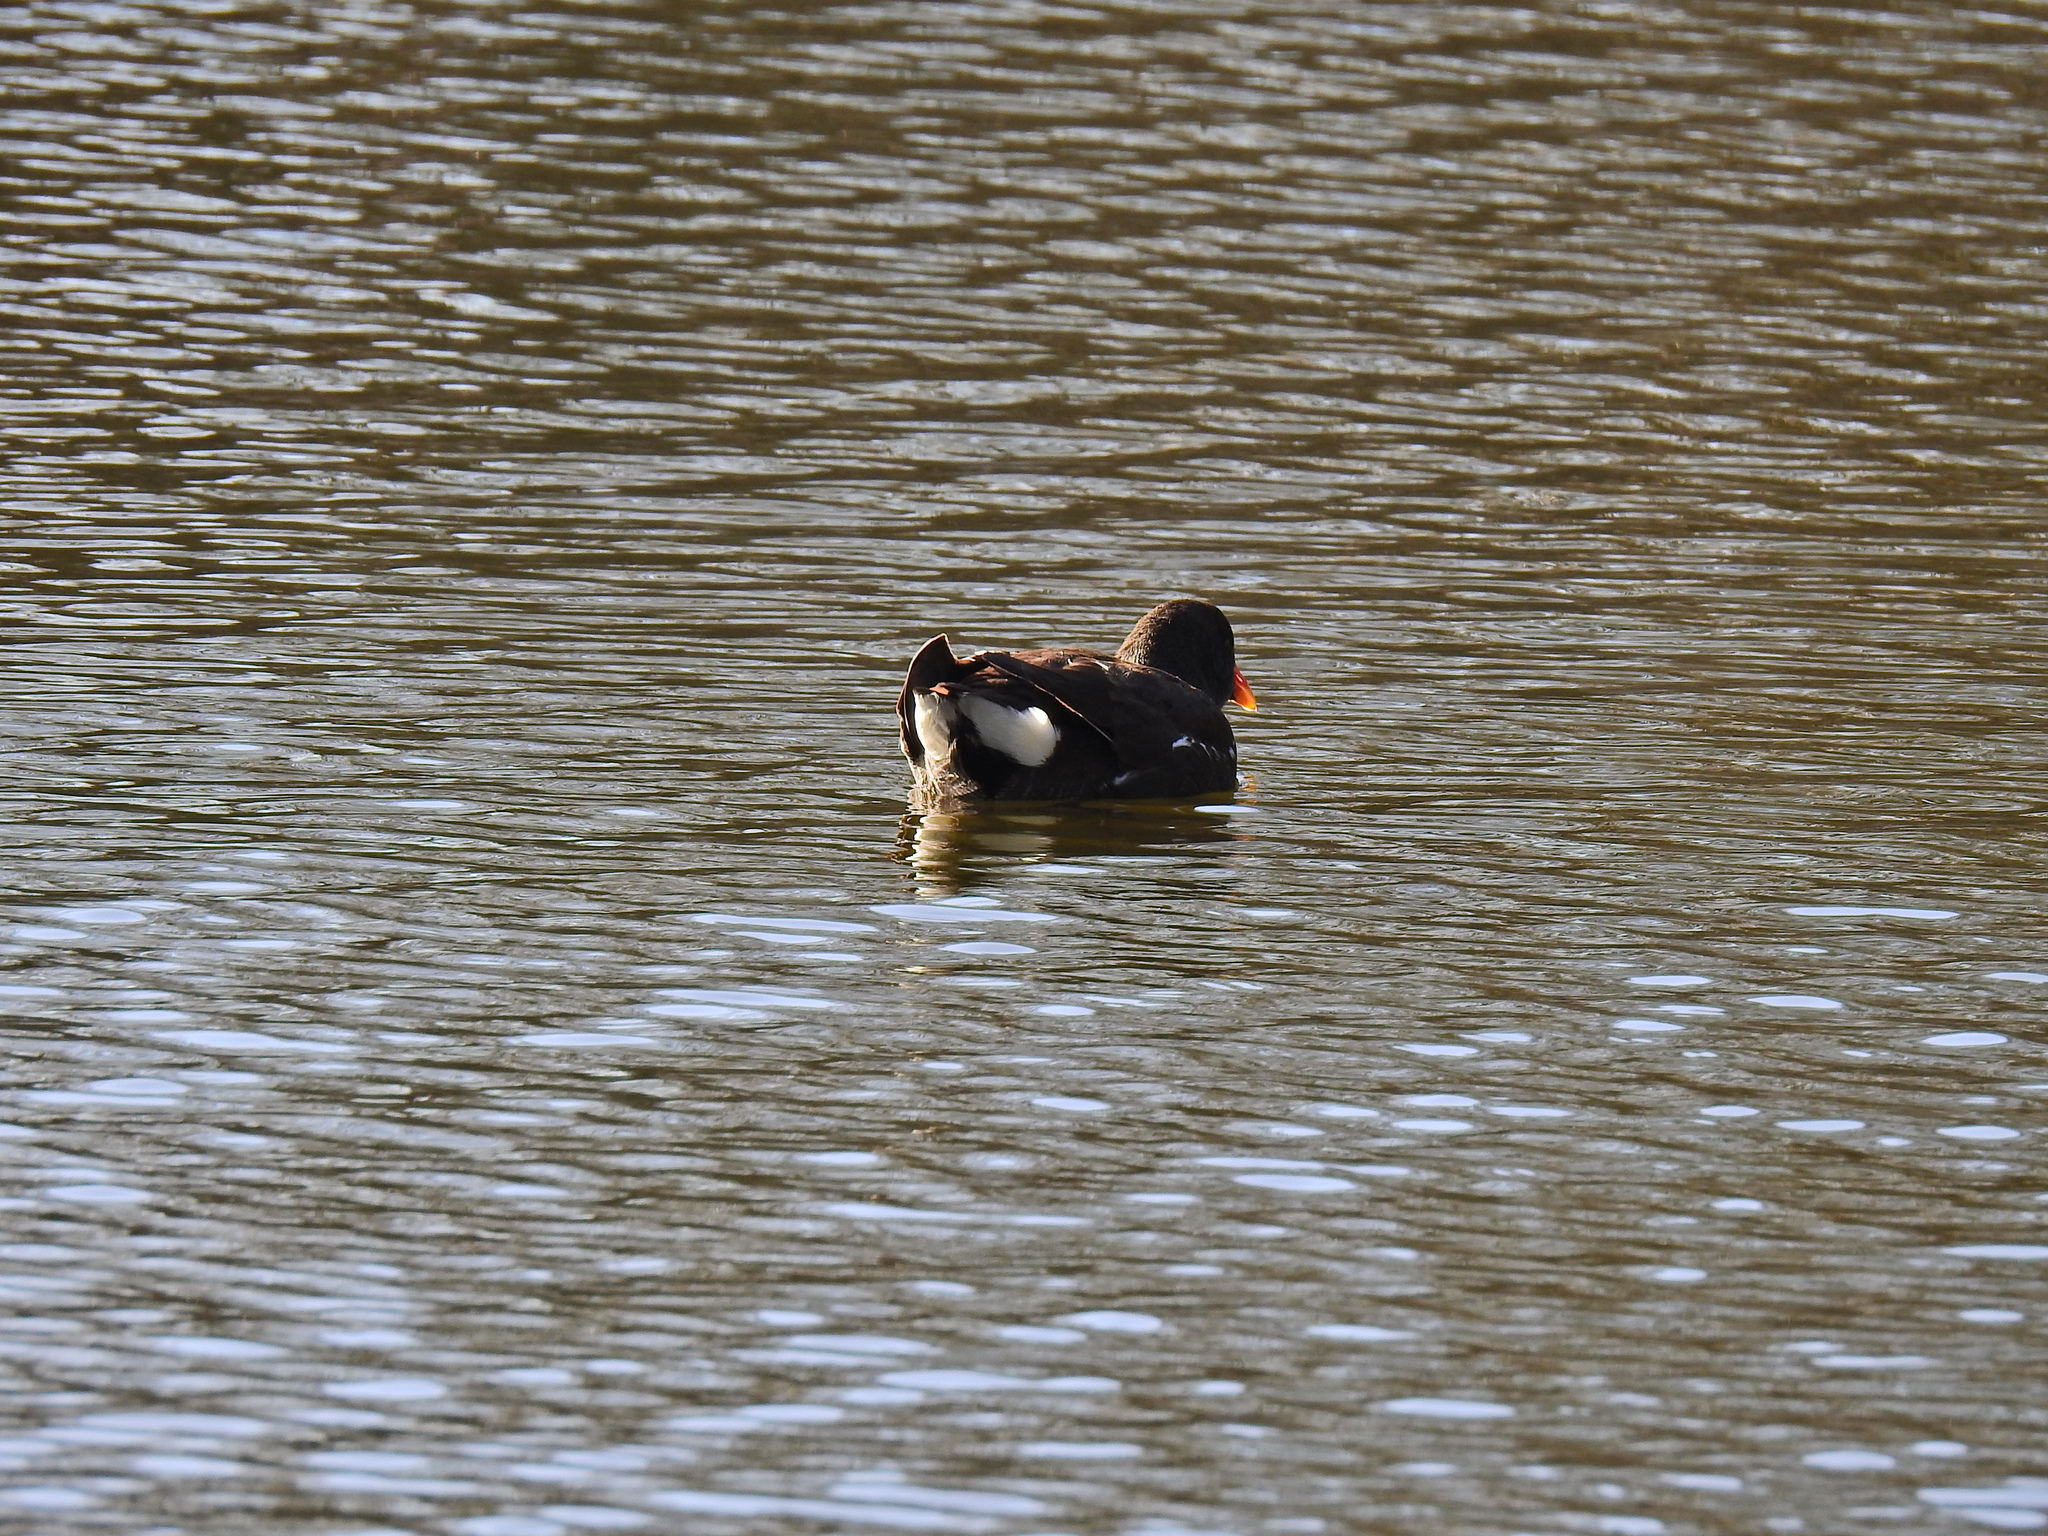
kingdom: Animalia
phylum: Chordata
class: Aves
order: Gruiformes
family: Rallidae
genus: Gallinula
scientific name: Gallinula chloropus
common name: Common moorhen
